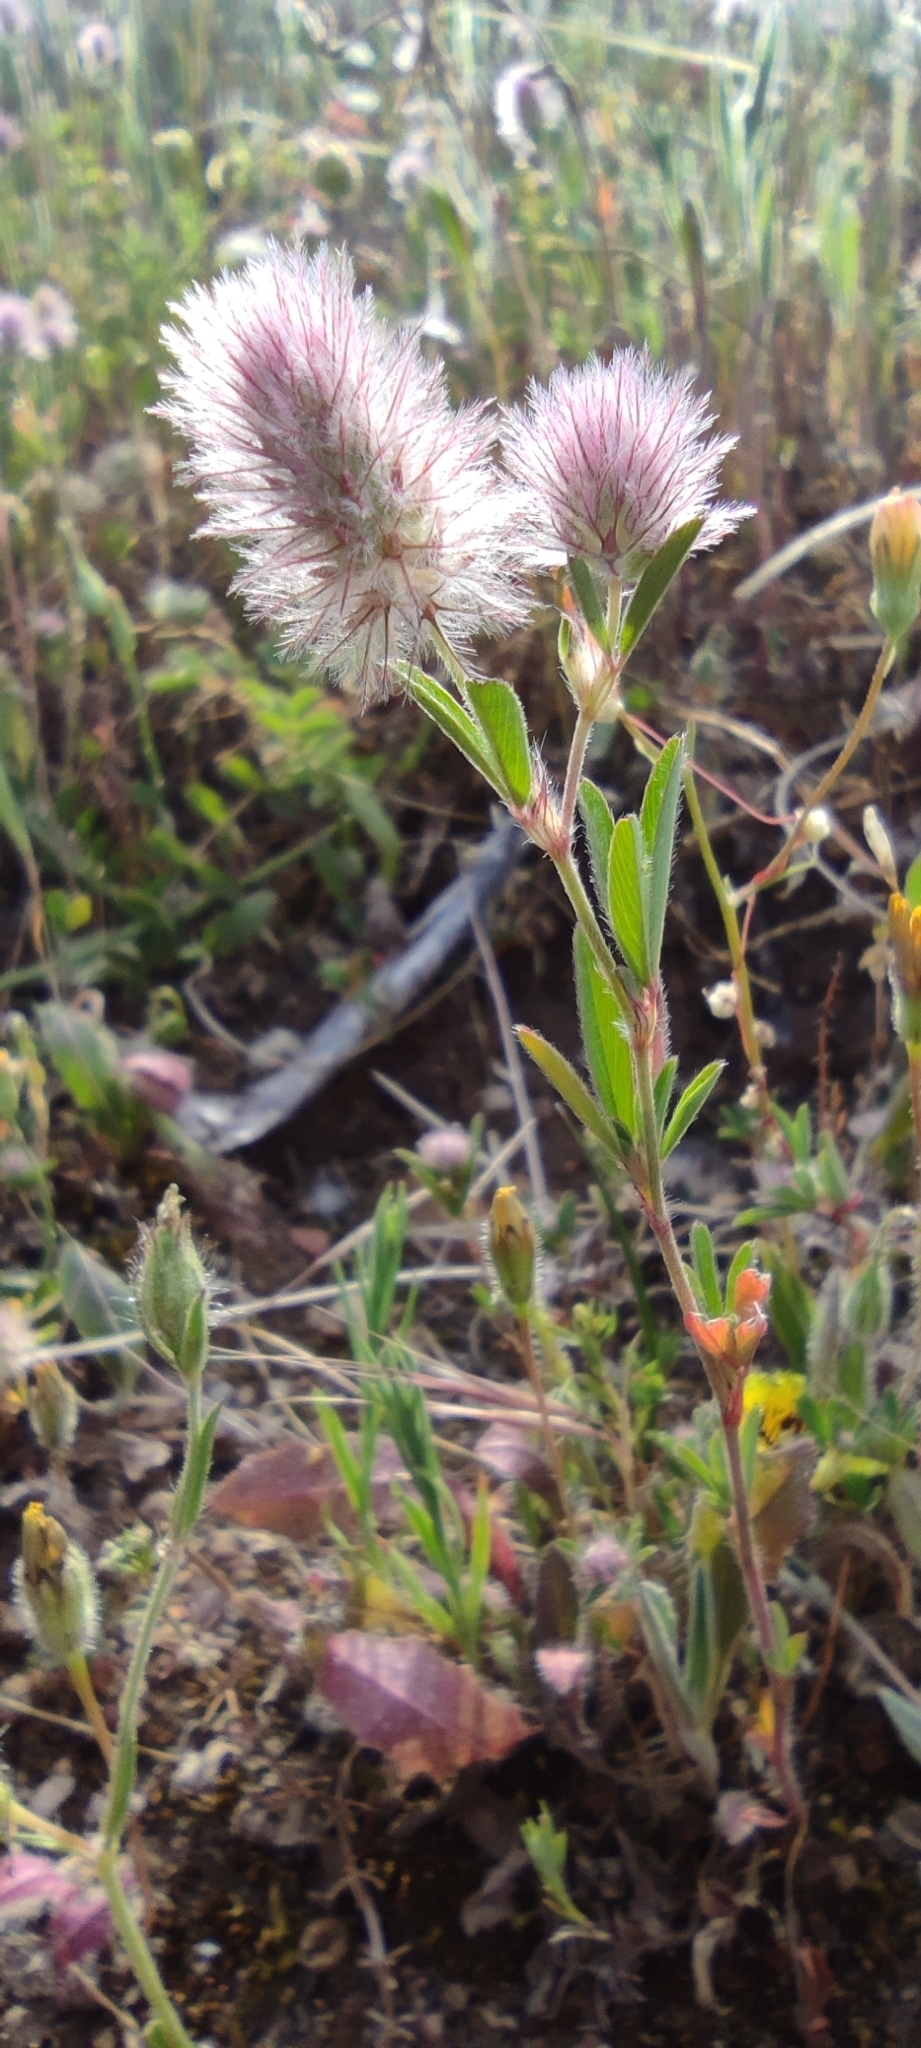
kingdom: Plantae
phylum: Tracheophyta
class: Magnoliopsida
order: Fabales
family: Fabaceae
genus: Trifolium
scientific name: Trifolium arvense
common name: Hare's-foot clover
